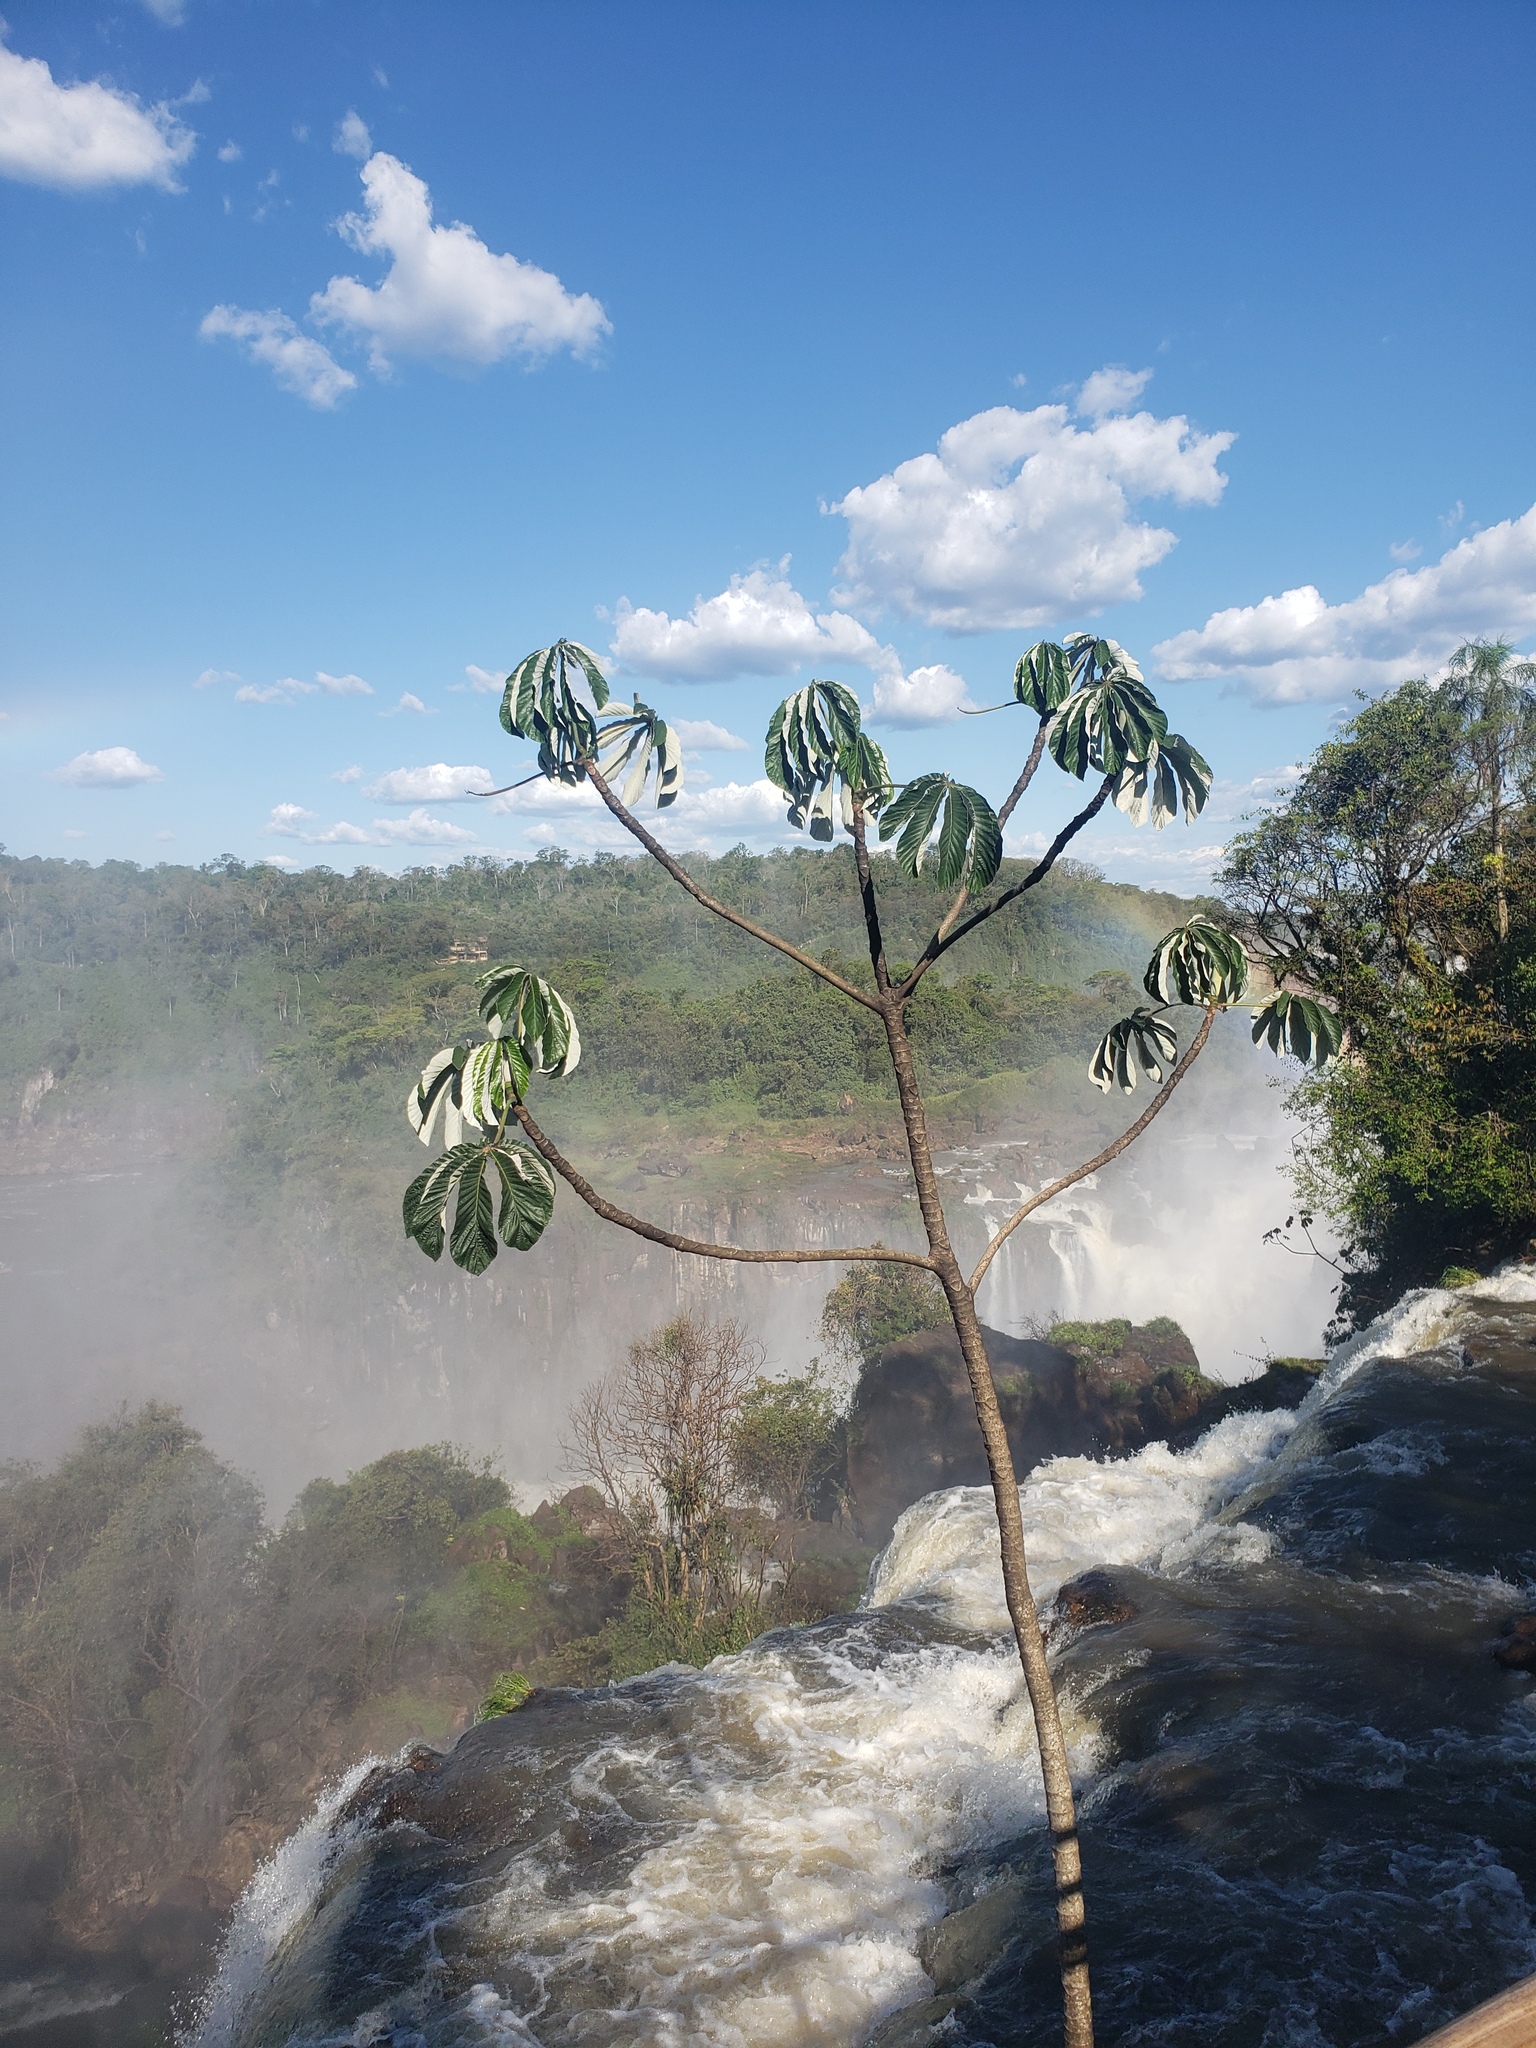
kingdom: Plantae
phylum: Tracheophyta
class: Magnoliopsida
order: Rosales
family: Urticaceae
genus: Cecropia
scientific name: Cecropia pachystachya
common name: Ambay pumpwood
